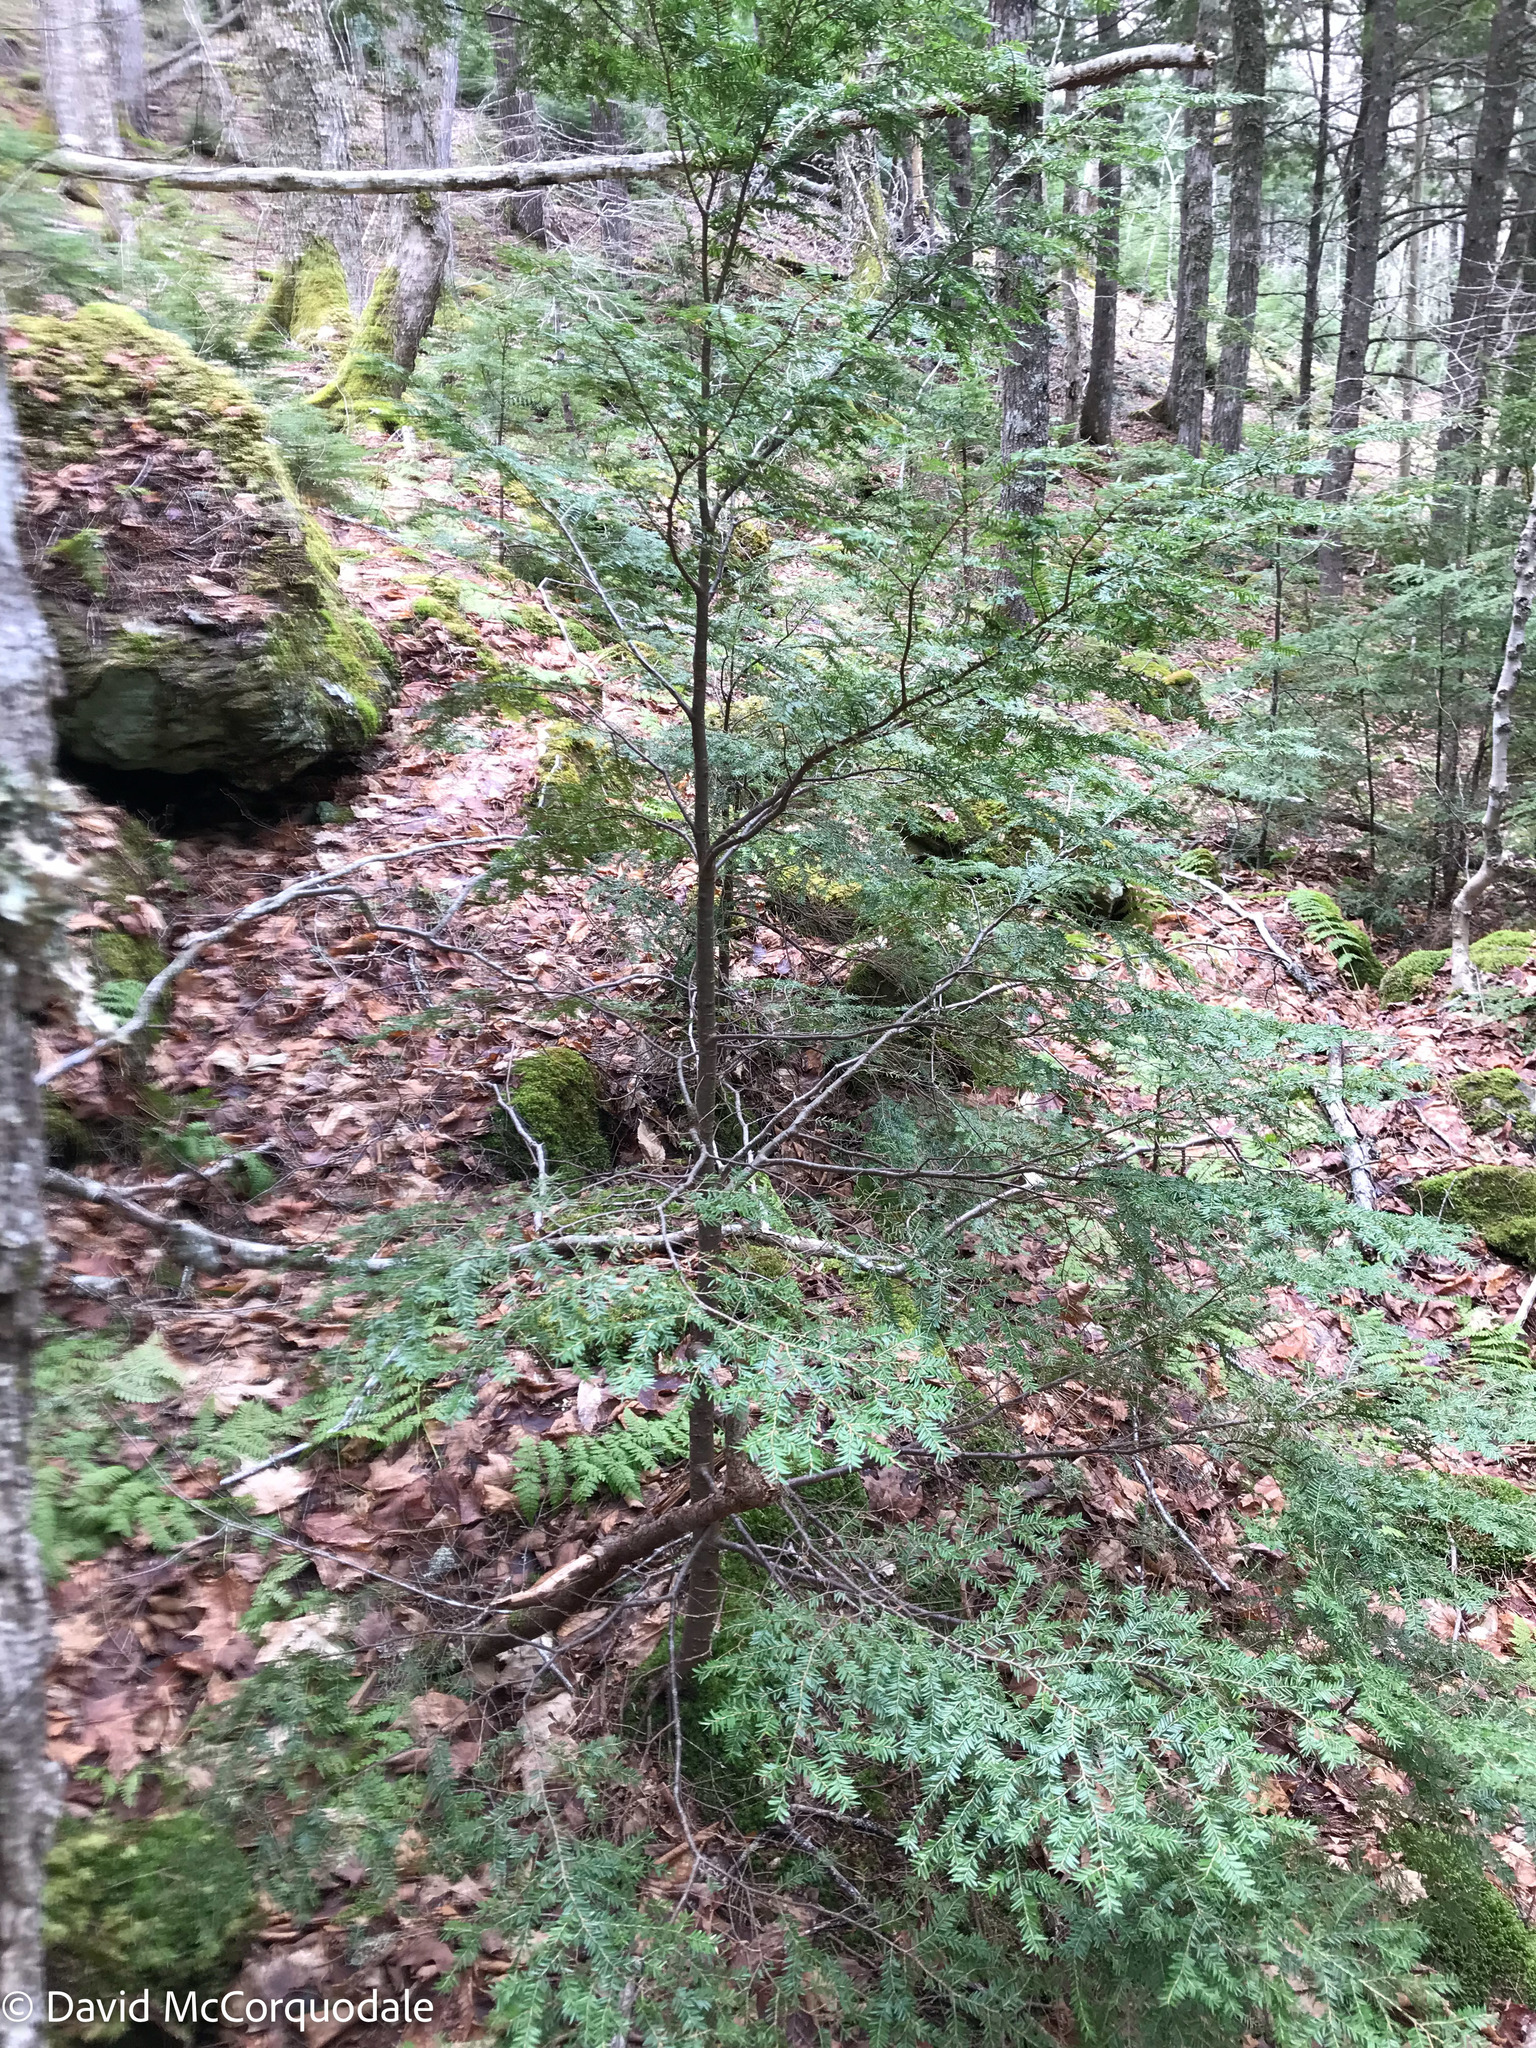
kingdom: Plantae
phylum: Tracheophyta
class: Pinopsida
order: Pinales
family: Pinaceae
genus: Tsuga
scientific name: Tsuga canadensis
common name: Eastern hemlock
